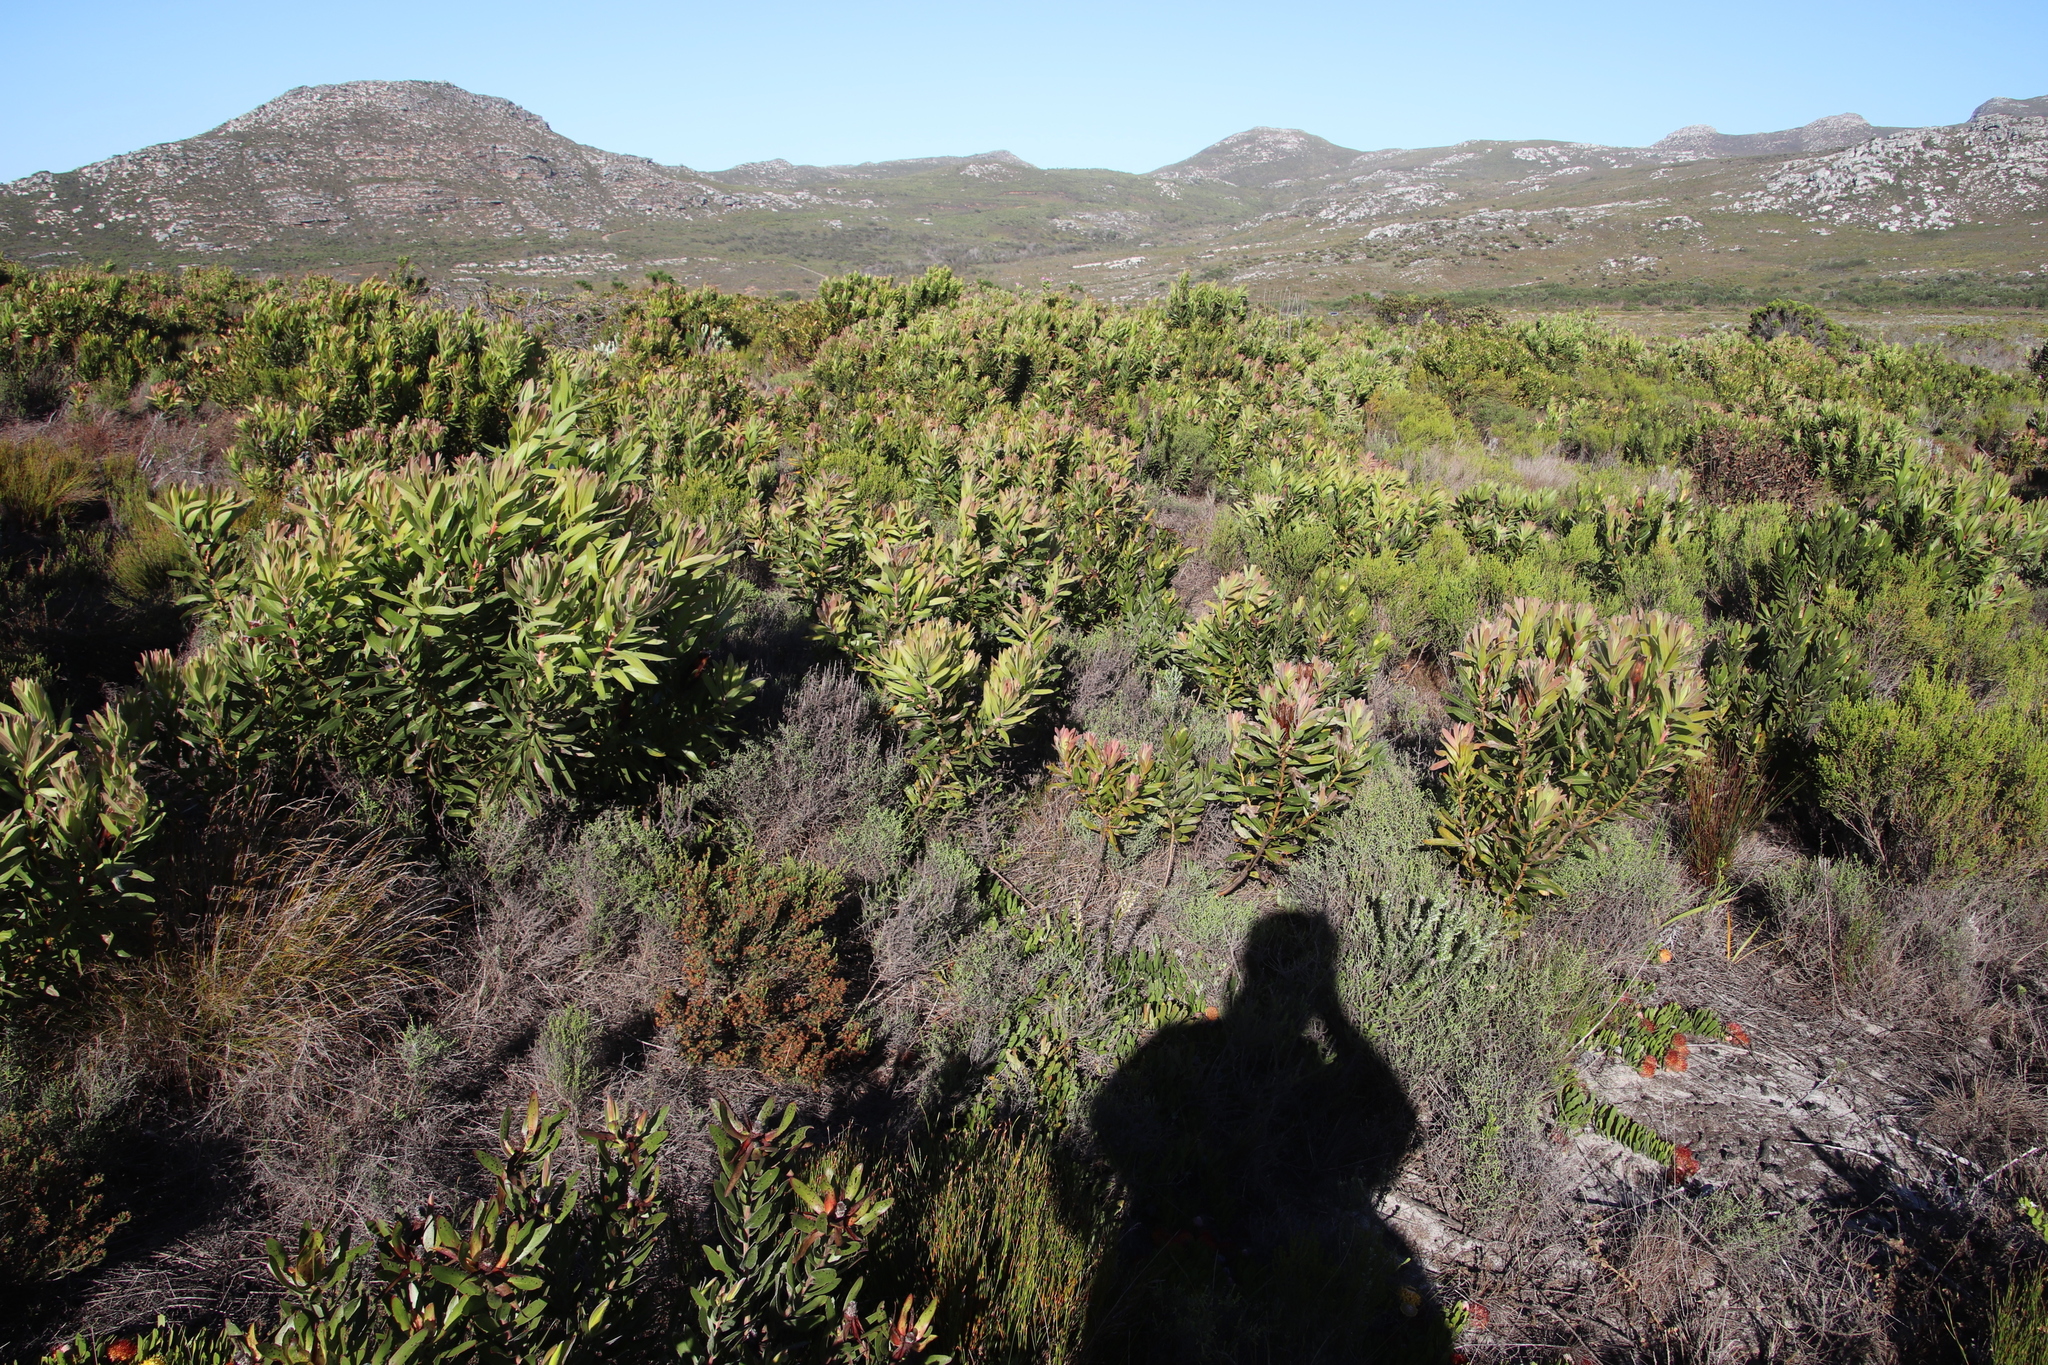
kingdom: Plantae
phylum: Tracheophyta
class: Magnoliopsida
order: Proteales
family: Proteaceae
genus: Protea
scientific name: Protea lepidocarpodendron
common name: Black-bearded protea
